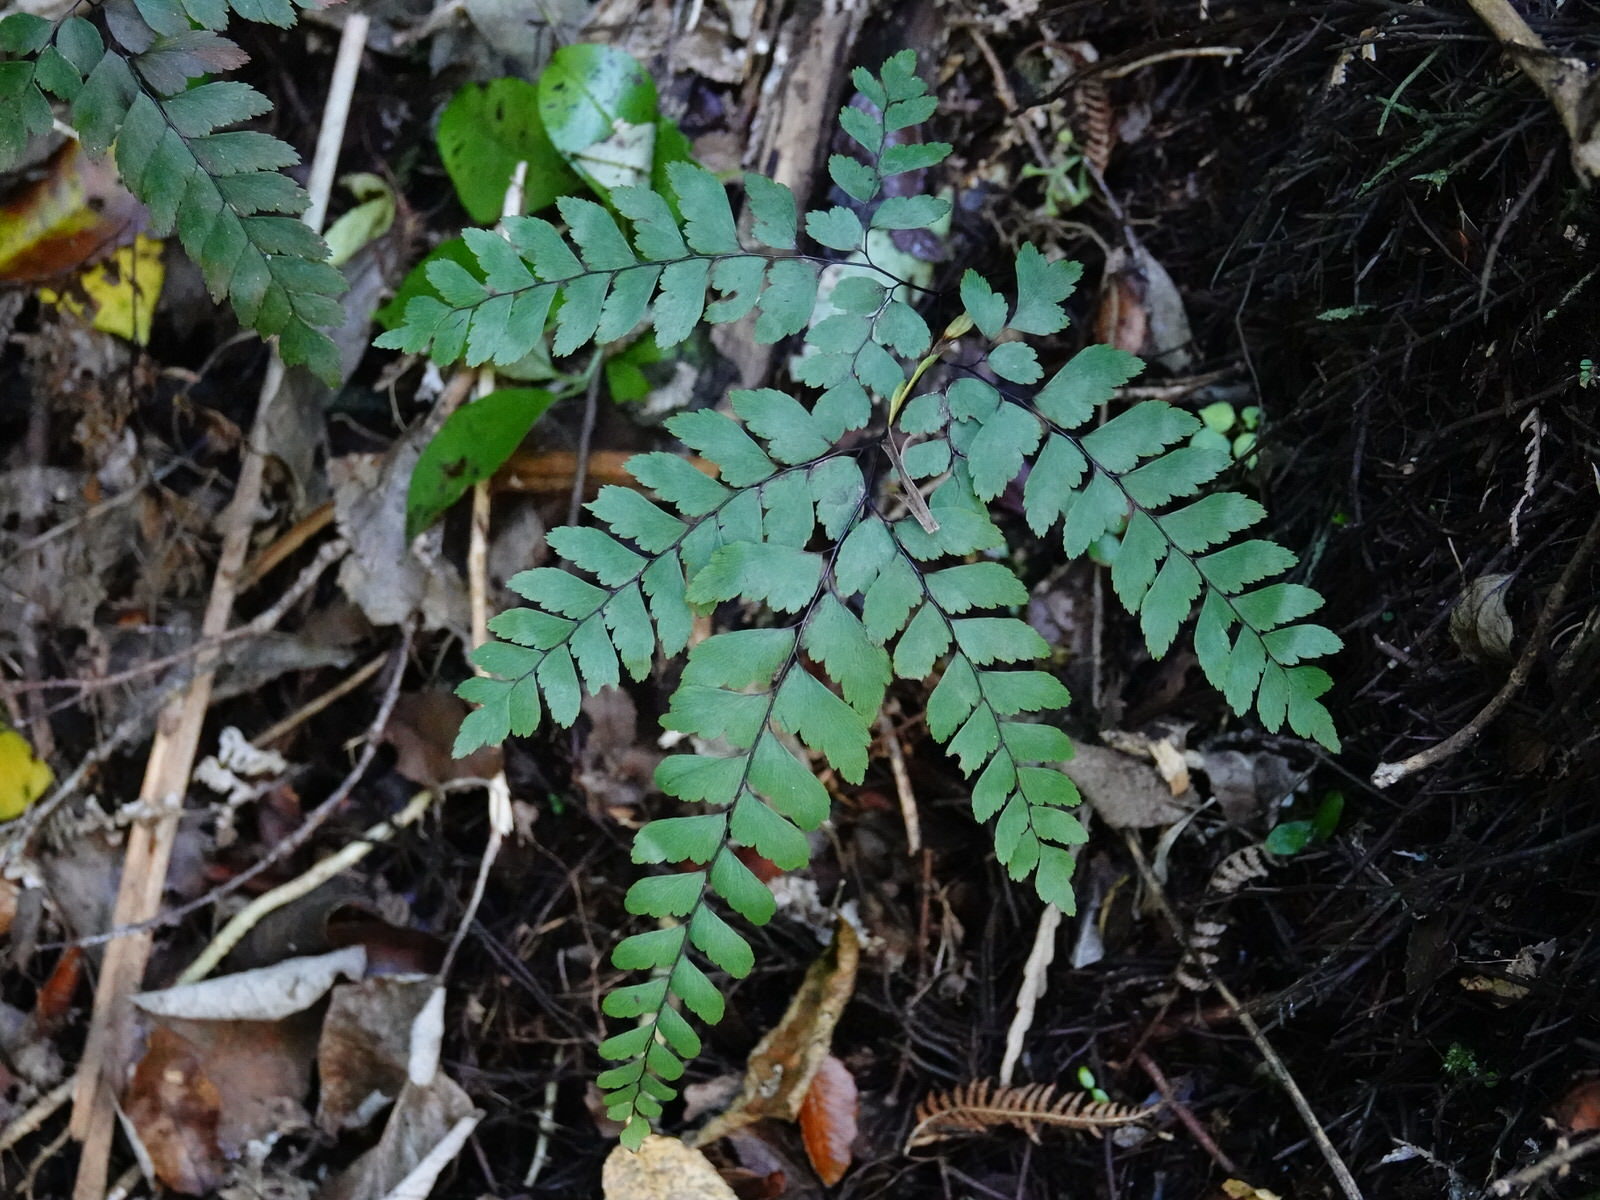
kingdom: Plantae
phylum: Tracheophyta
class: Polypodiopsida
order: Polypodiales
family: Pteridaceae
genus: Adiantum
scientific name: Adiantum cunninghamii
